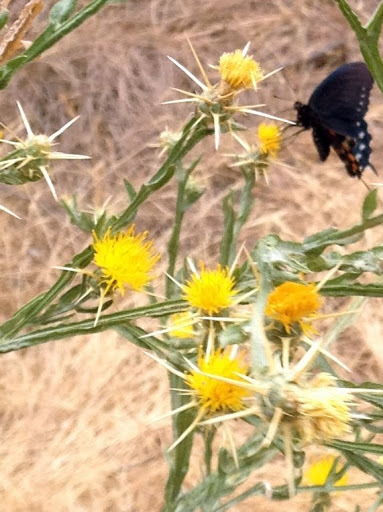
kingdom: Plantae
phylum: Tracheophyta
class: Magnoliopsida
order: Asterales
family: Asteraceae
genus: Centaurea
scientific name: Centaurea solstitialis
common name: Yellow star-thistle
